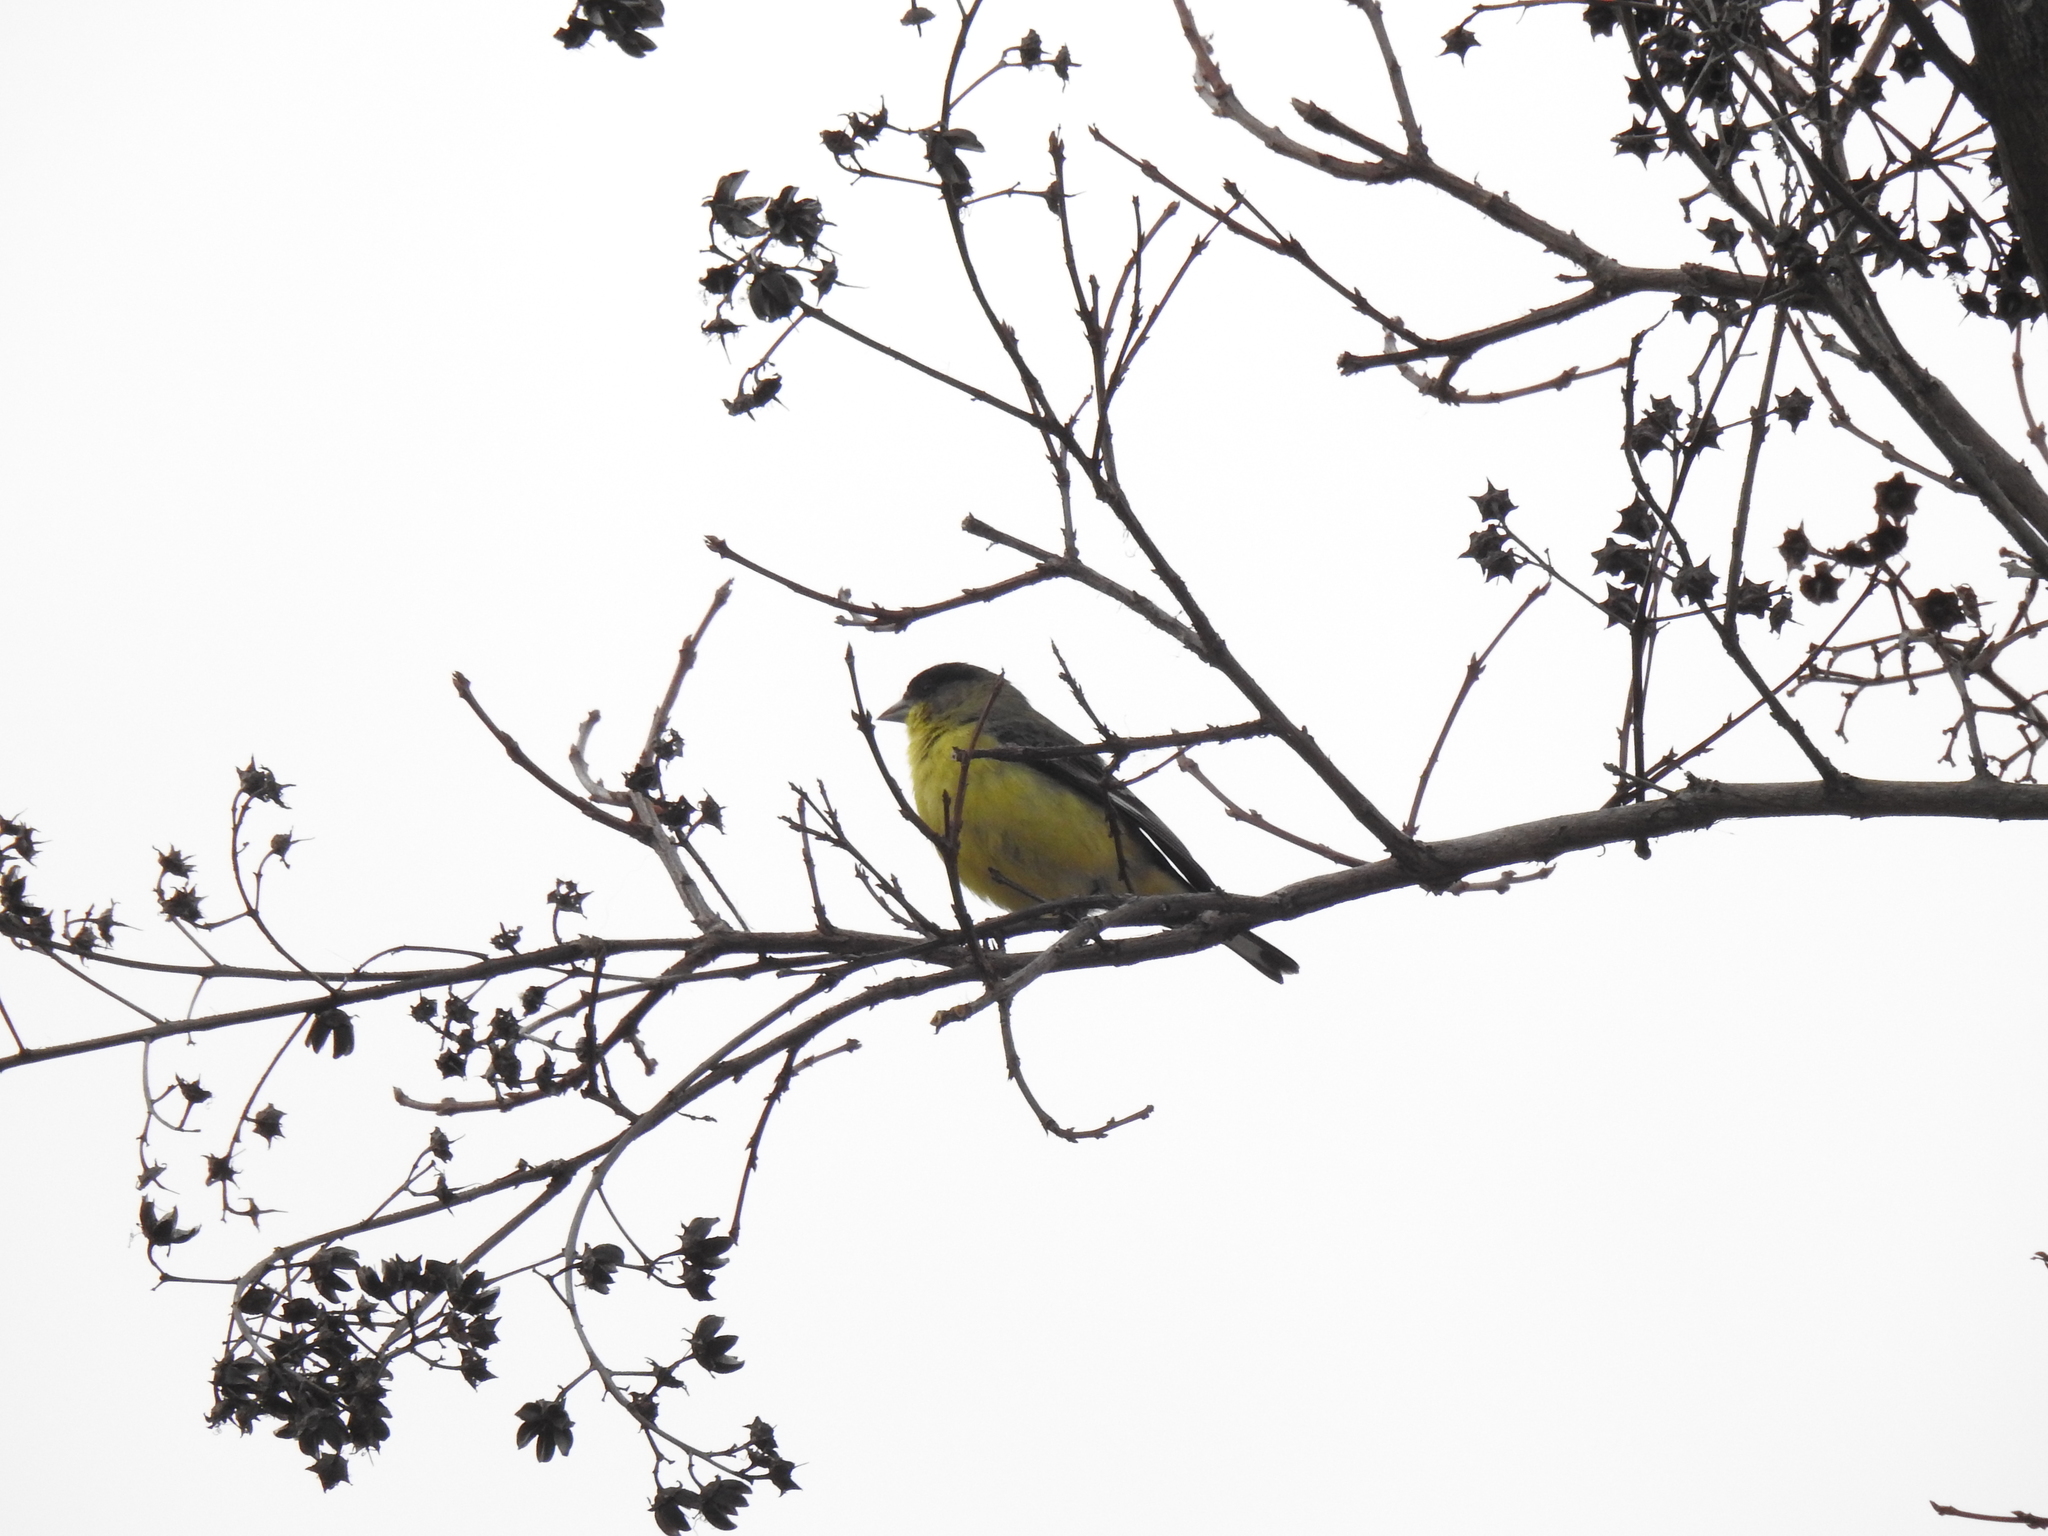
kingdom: Animalia
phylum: Chordata
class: Aves
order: Passeriformes
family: Fringillidae
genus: Spinus
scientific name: Spinus psaltria
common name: Lesser goldfinch
